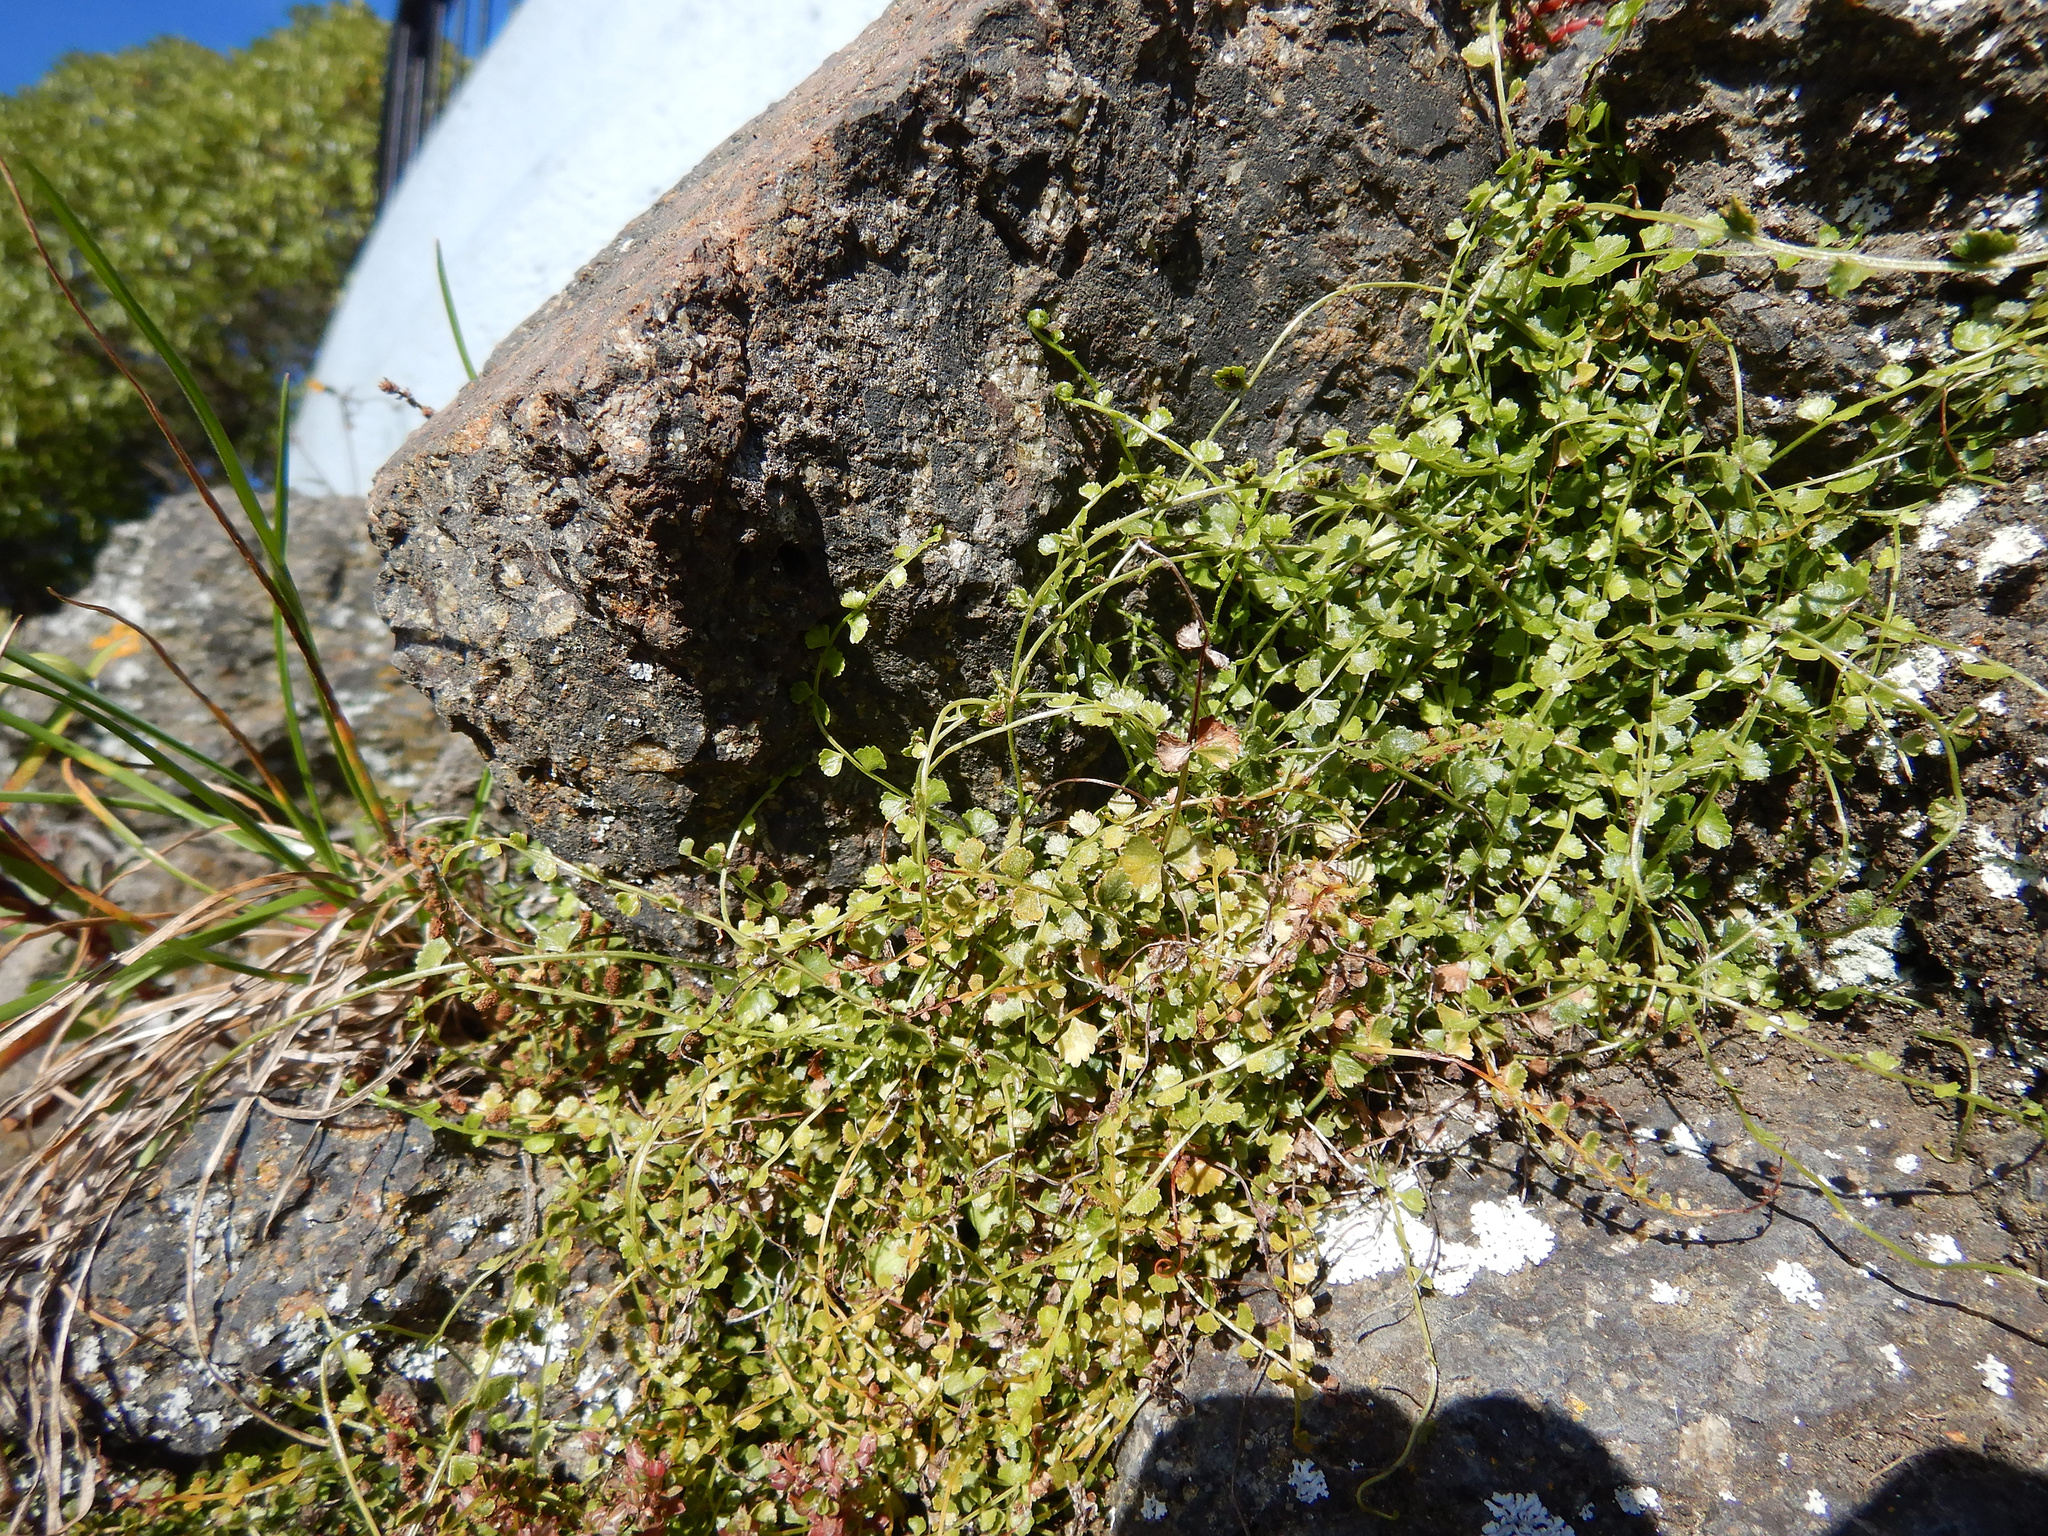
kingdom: Plantae
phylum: Tracheophyta
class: Polypodiopsida
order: Polypodiales
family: Aspleniaceae
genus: Asplenium
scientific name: Asplenium flabellifolium
